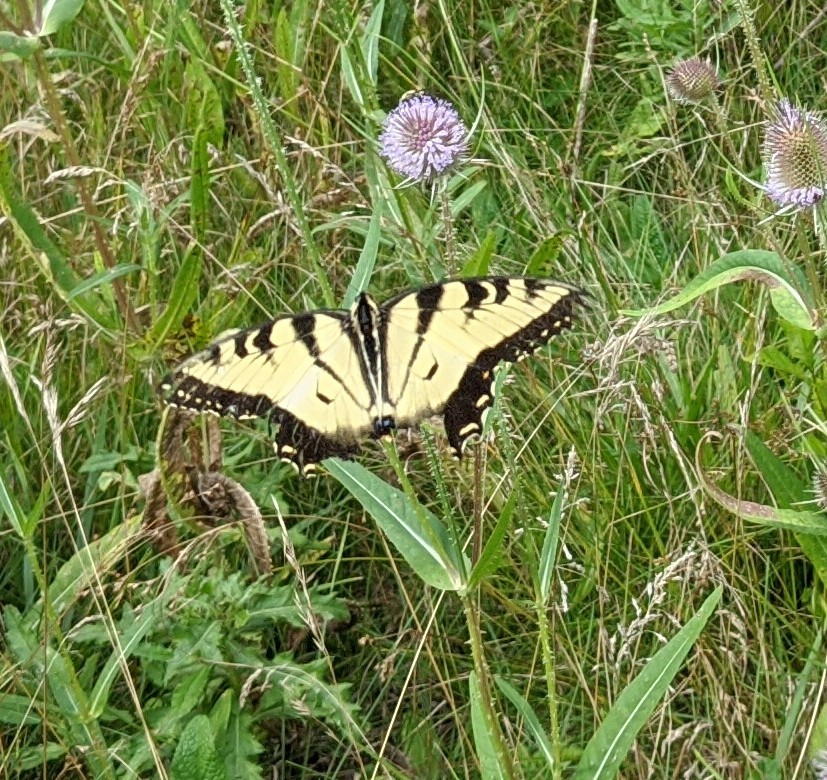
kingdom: Animalia
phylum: Arthropoda
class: Insecta
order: Lepidoptera
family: Papilionidae
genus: Papilio
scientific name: Papilio glaucus
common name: Tiger swallowtail
